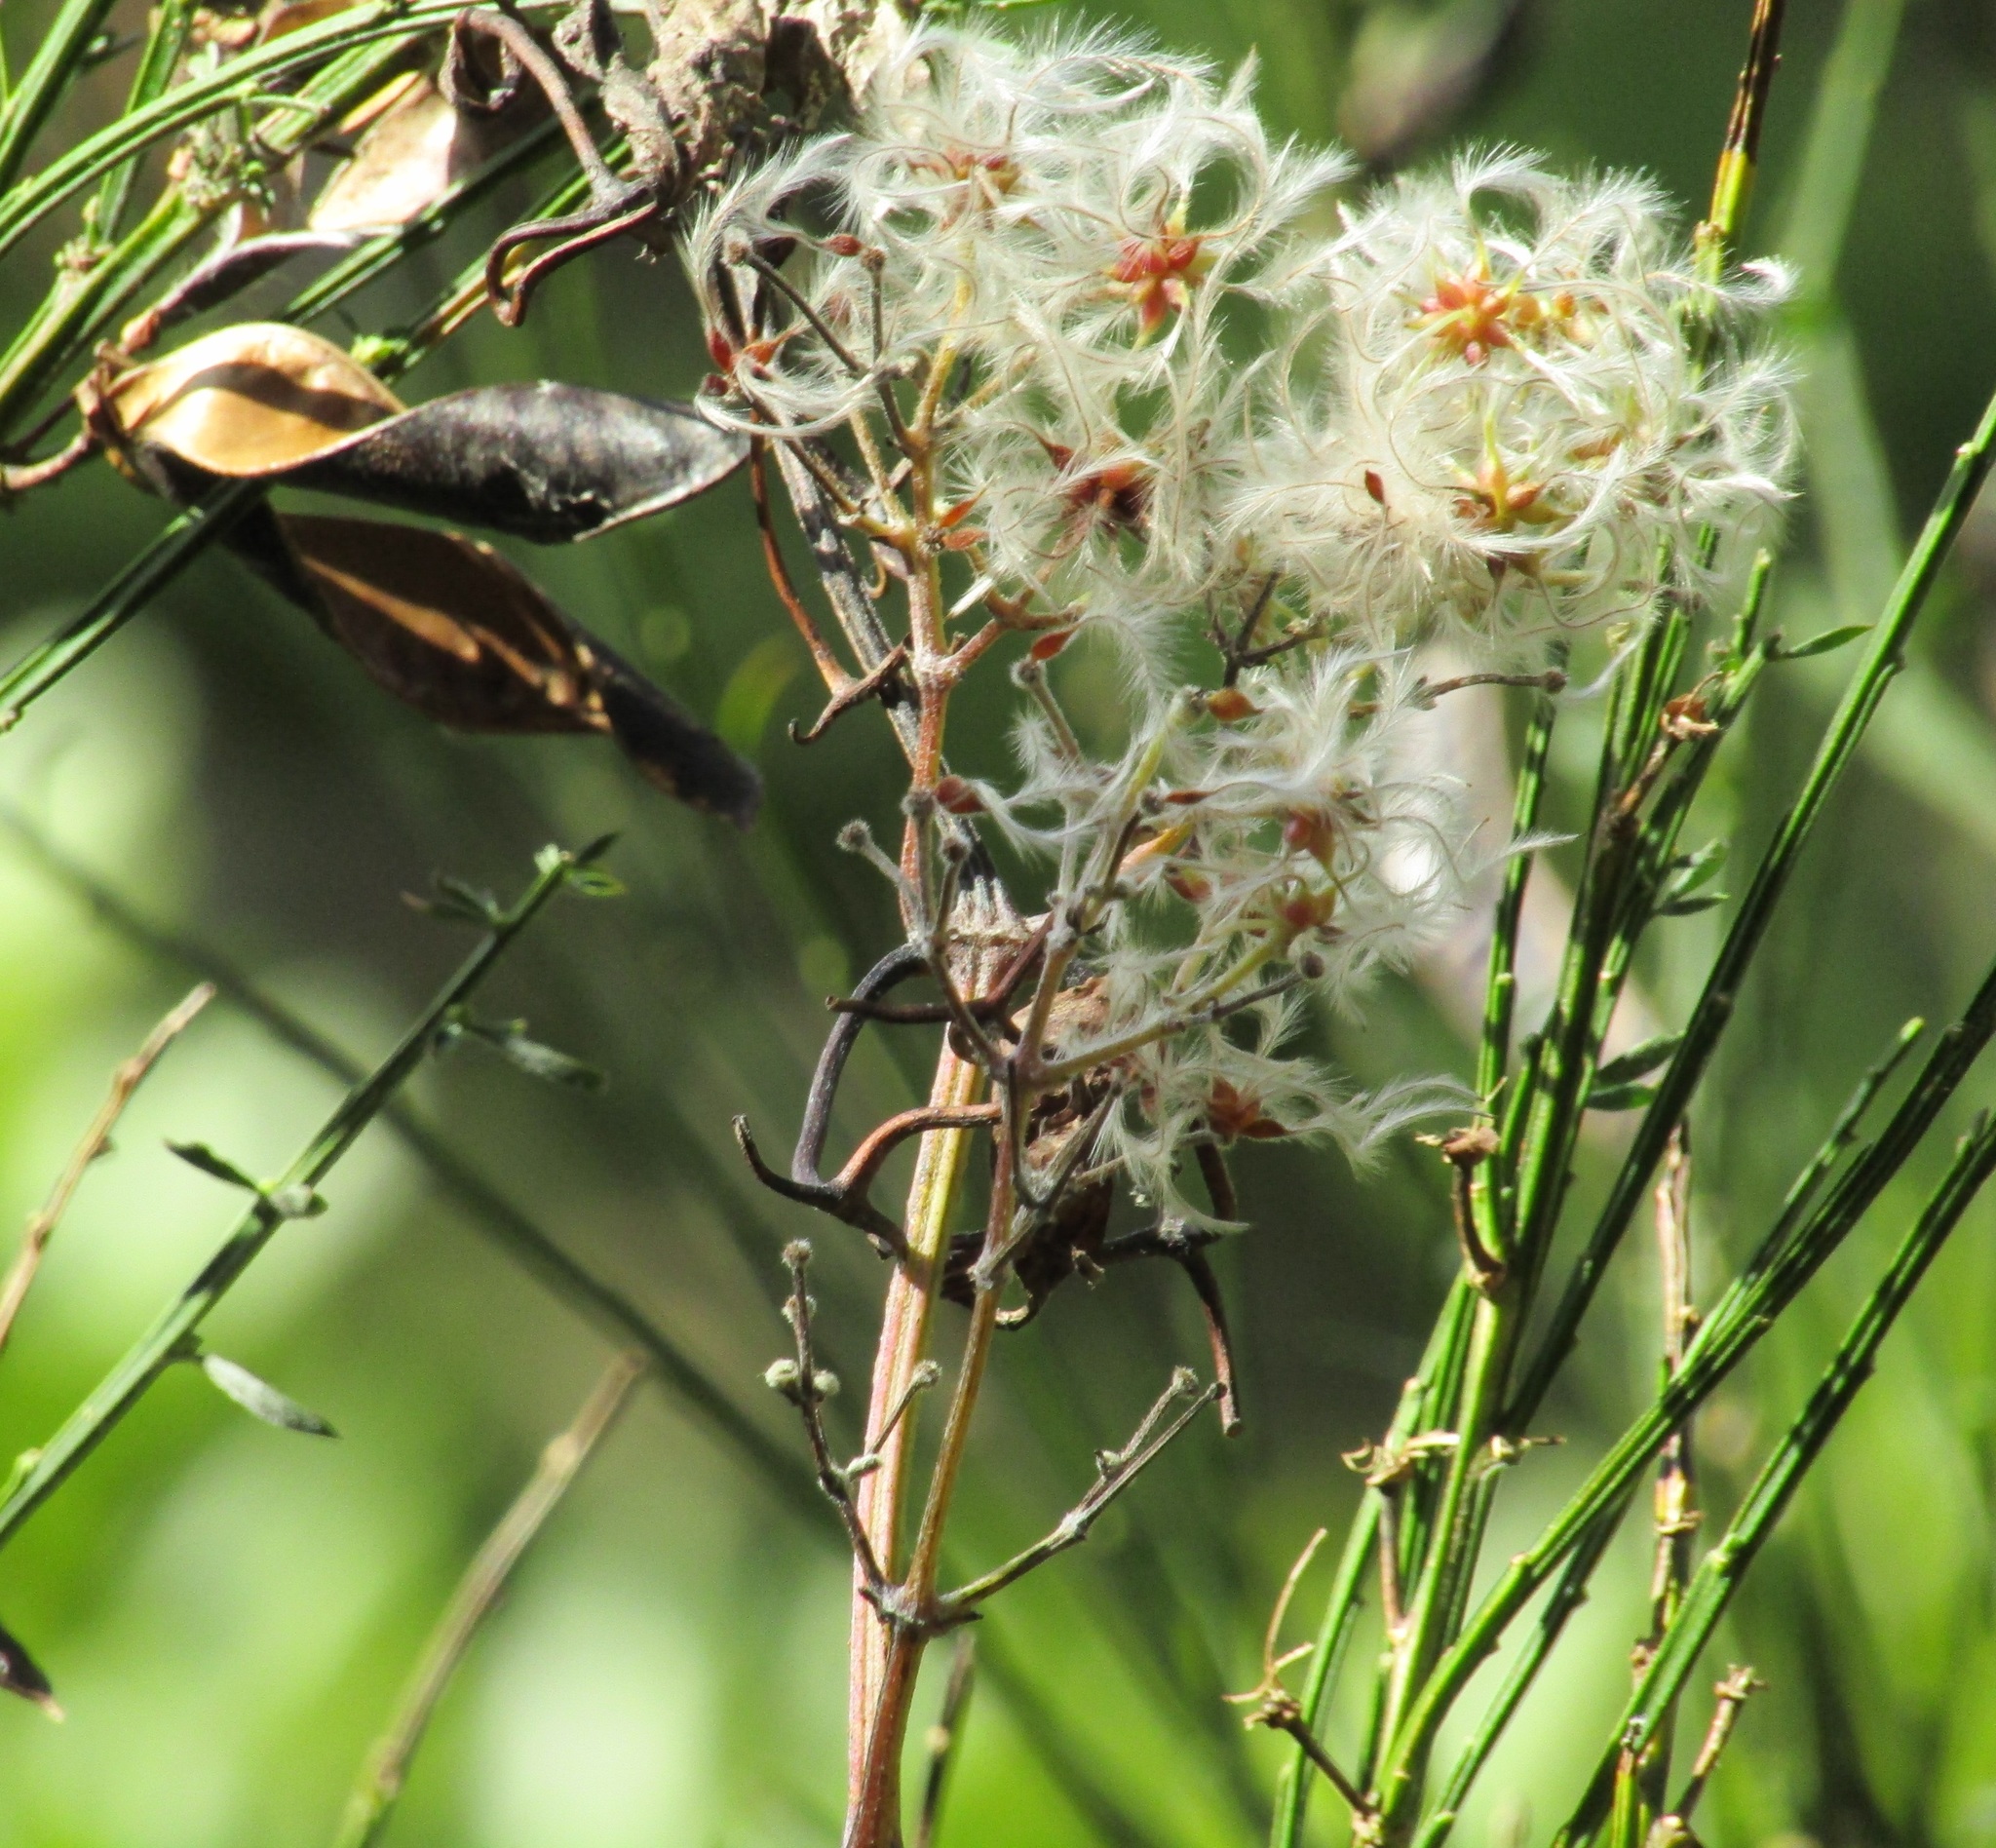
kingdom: Plantae
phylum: Tracheophyta
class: Magnoliopsida
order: Ranunculales
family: Ranunculaceae
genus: Clematis
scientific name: Clematis vitalba
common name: Evergreen clematis
